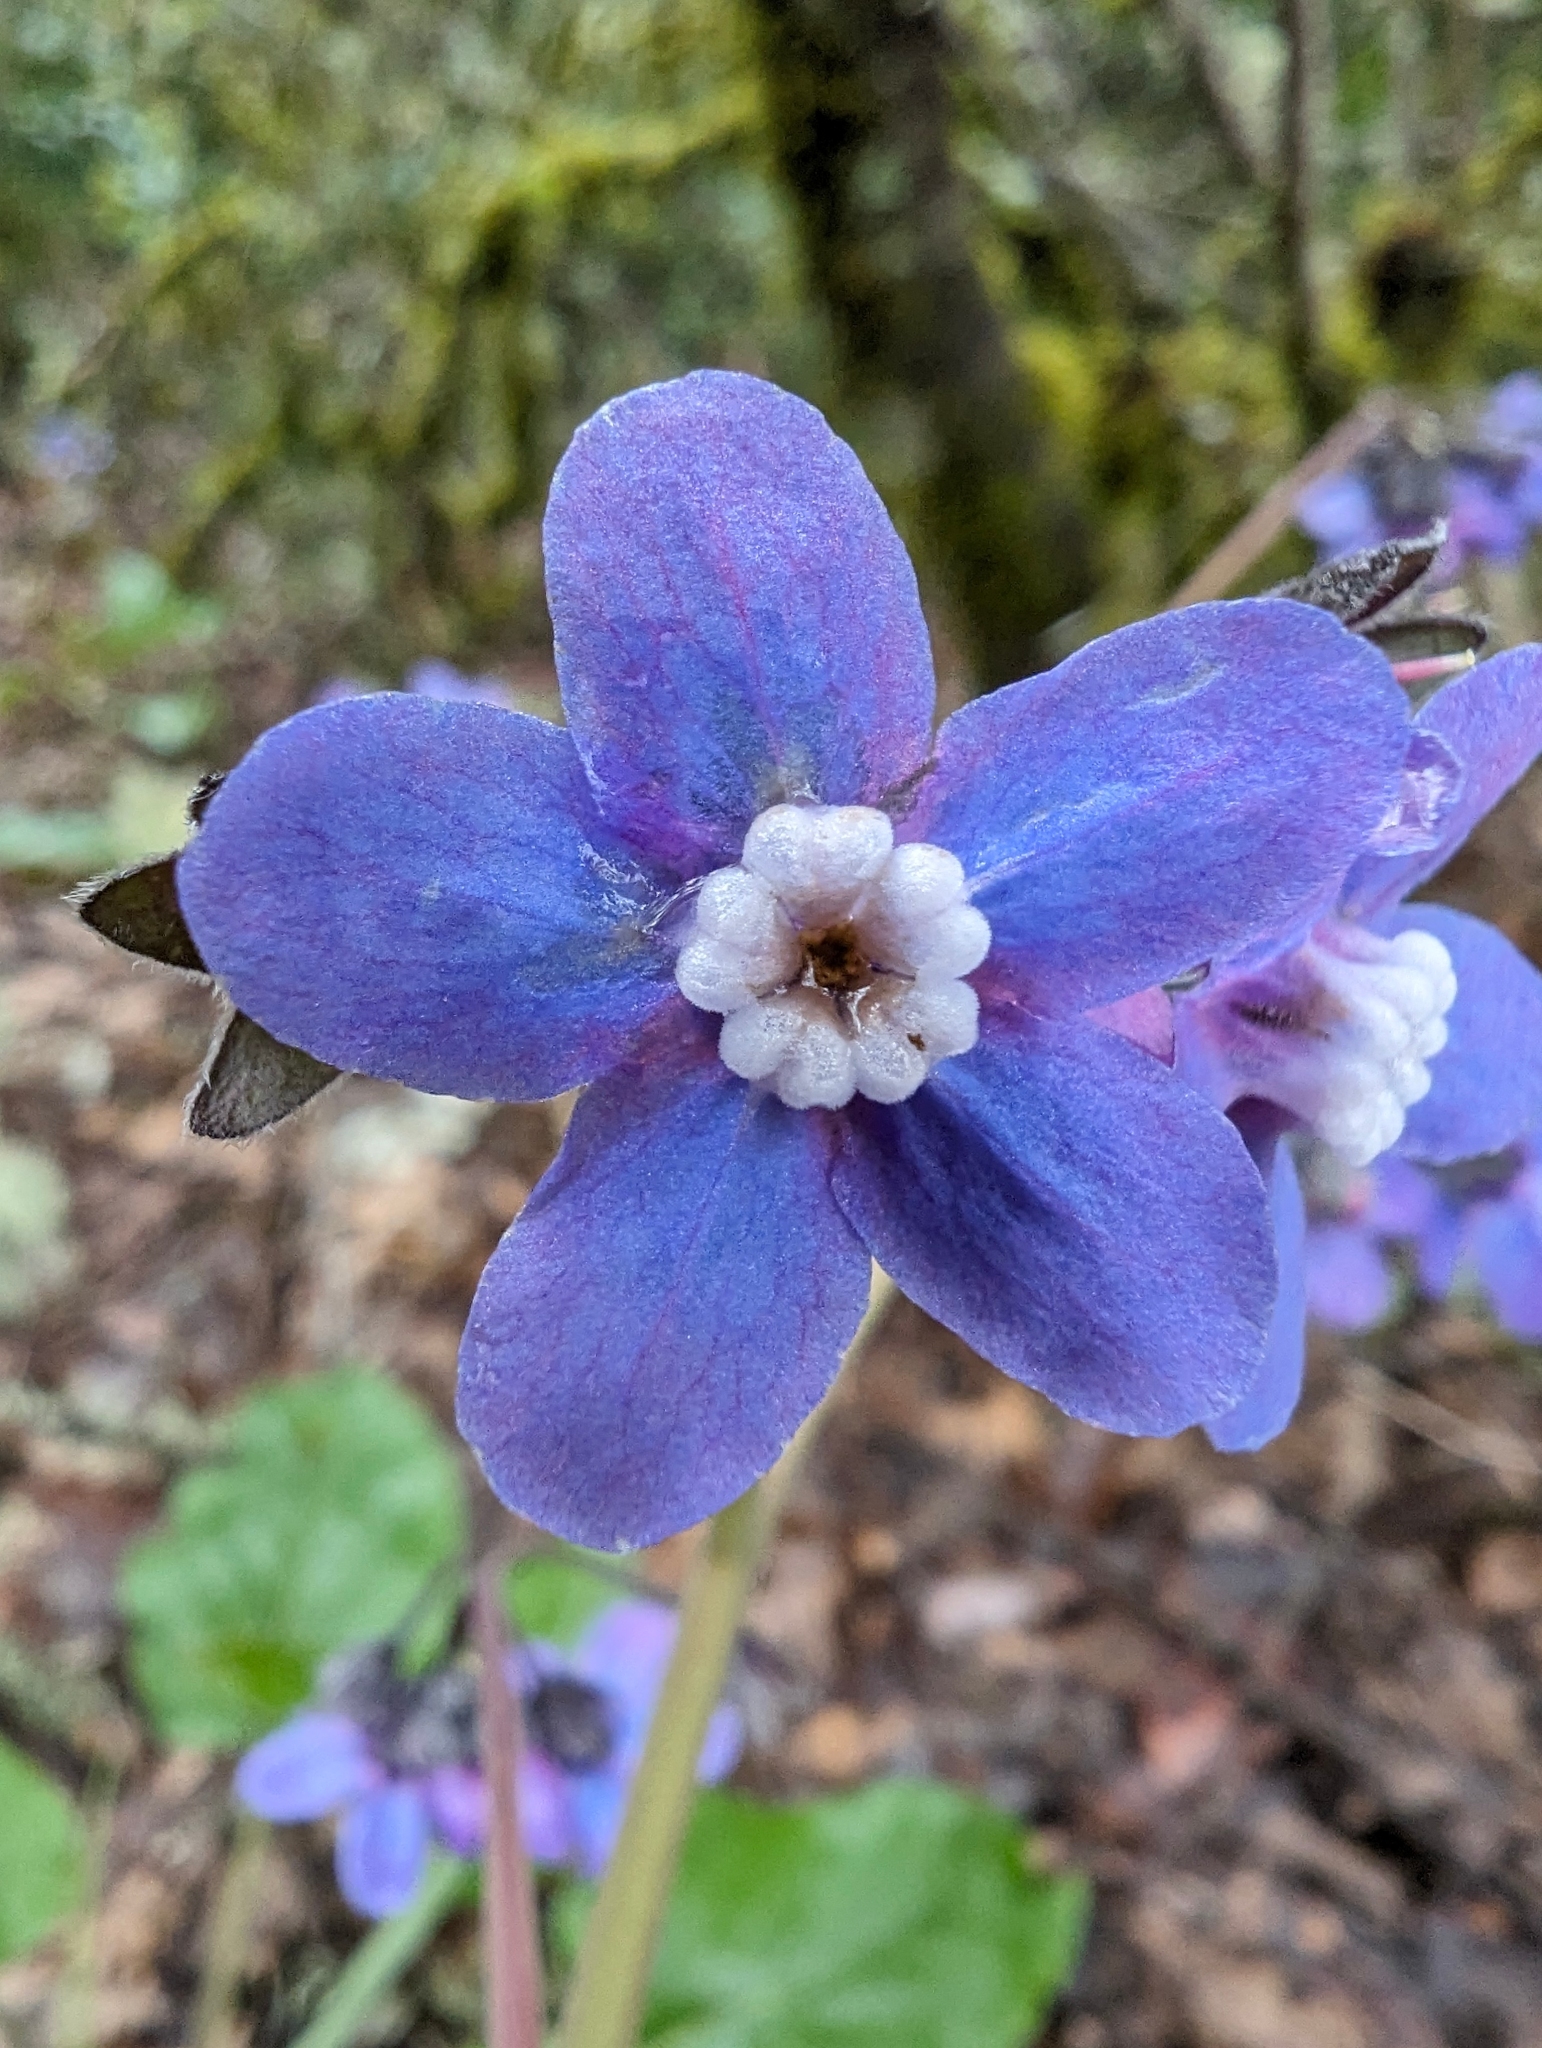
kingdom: Plantae
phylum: Tracheophyta
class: Magnoliopsida
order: Boraginales
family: Boraginaceae
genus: Adelinia
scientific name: Adelinia grande
